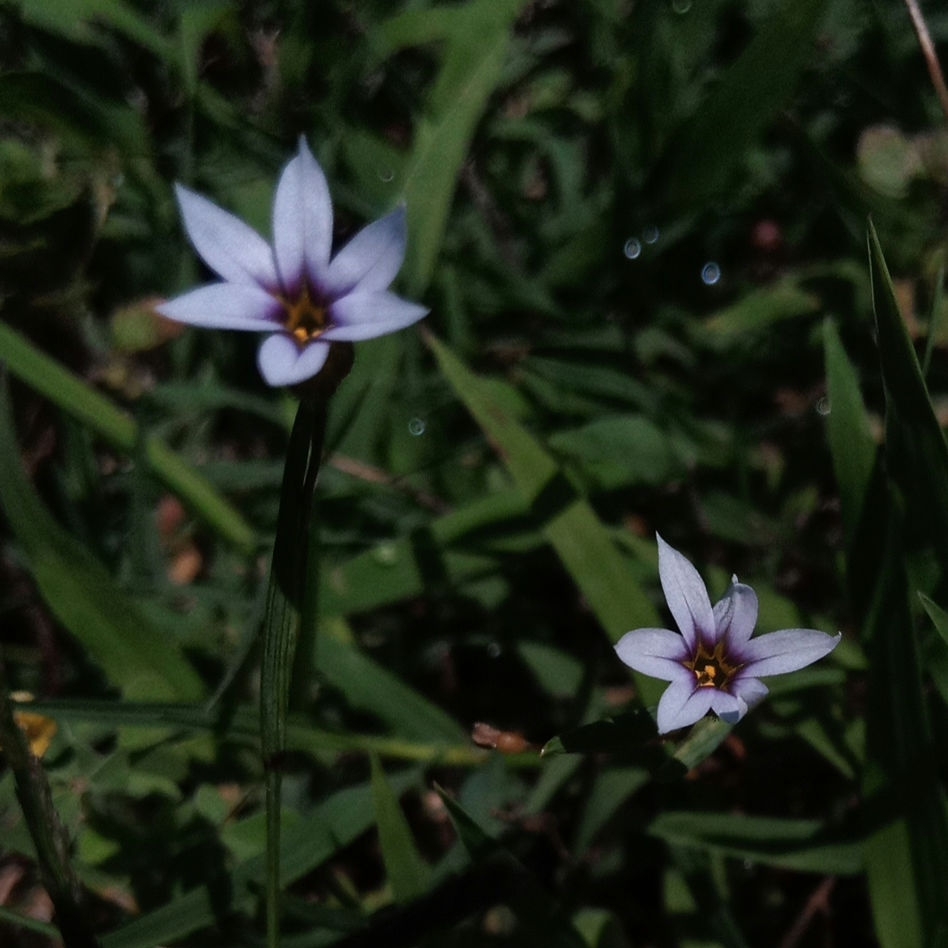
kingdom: Plantae
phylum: Tracheophyta
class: Liliopsida
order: Asparagales
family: Iridaceae
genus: Sisyrinchium
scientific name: Sisyrinchium micranthum
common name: Bermuda pigroot
